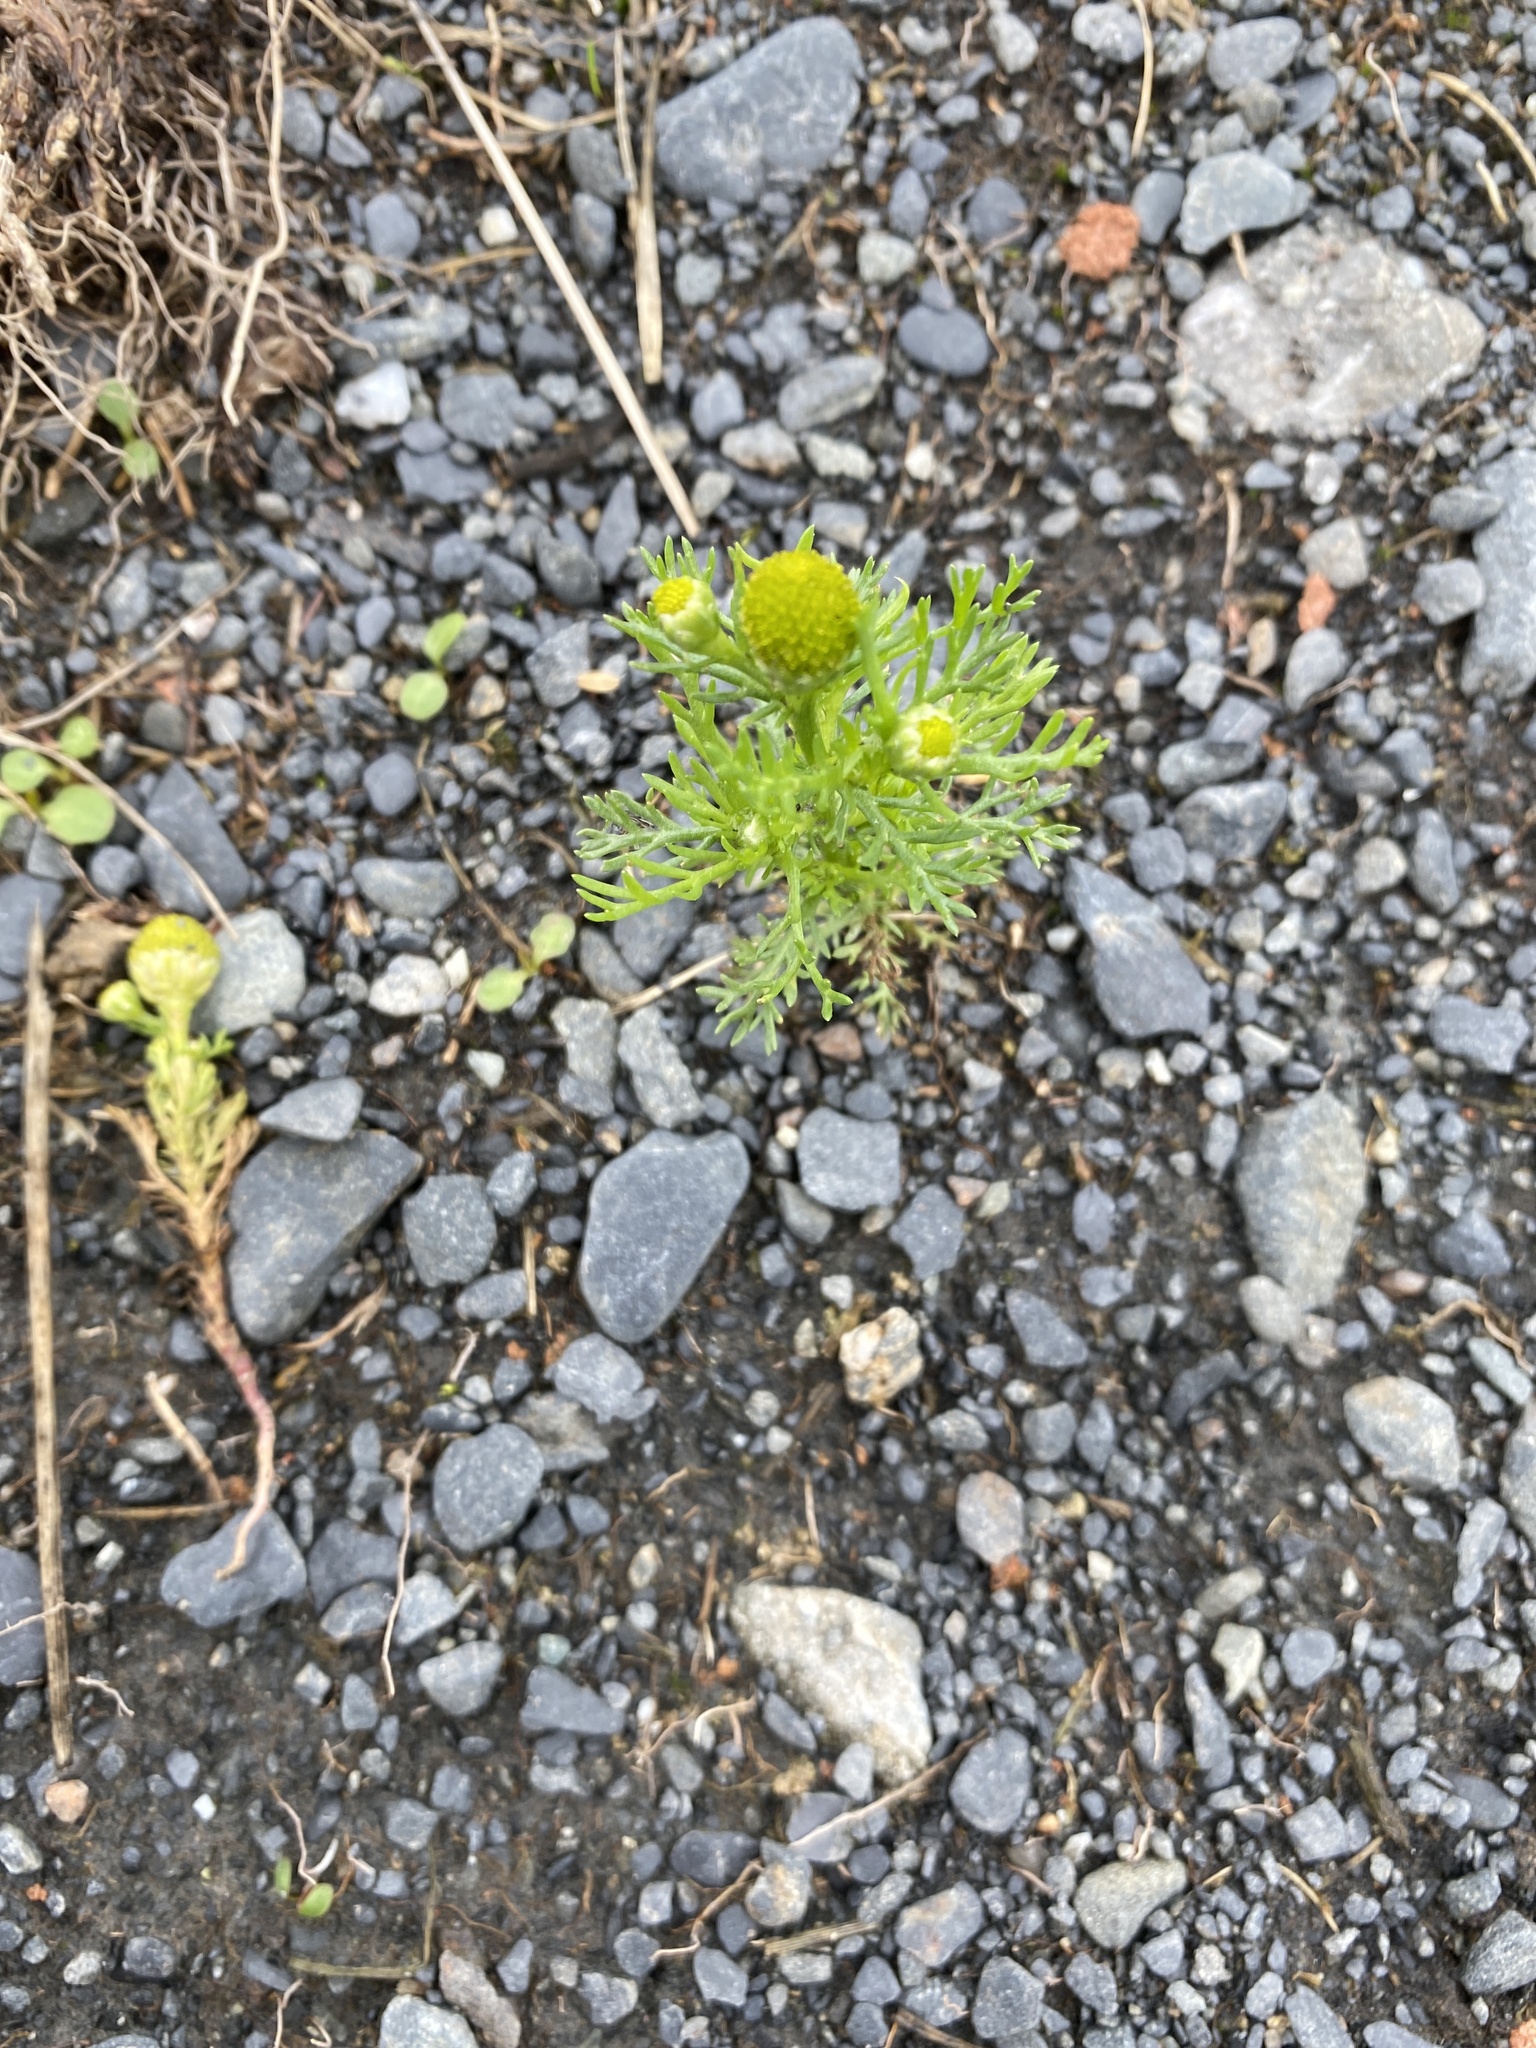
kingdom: Plantae
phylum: Tracheophyta
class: Magnoliopsida
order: Asterales
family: Asteraceae
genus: Matricaria
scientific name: Matricaria discoidea
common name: Disc mayweed
